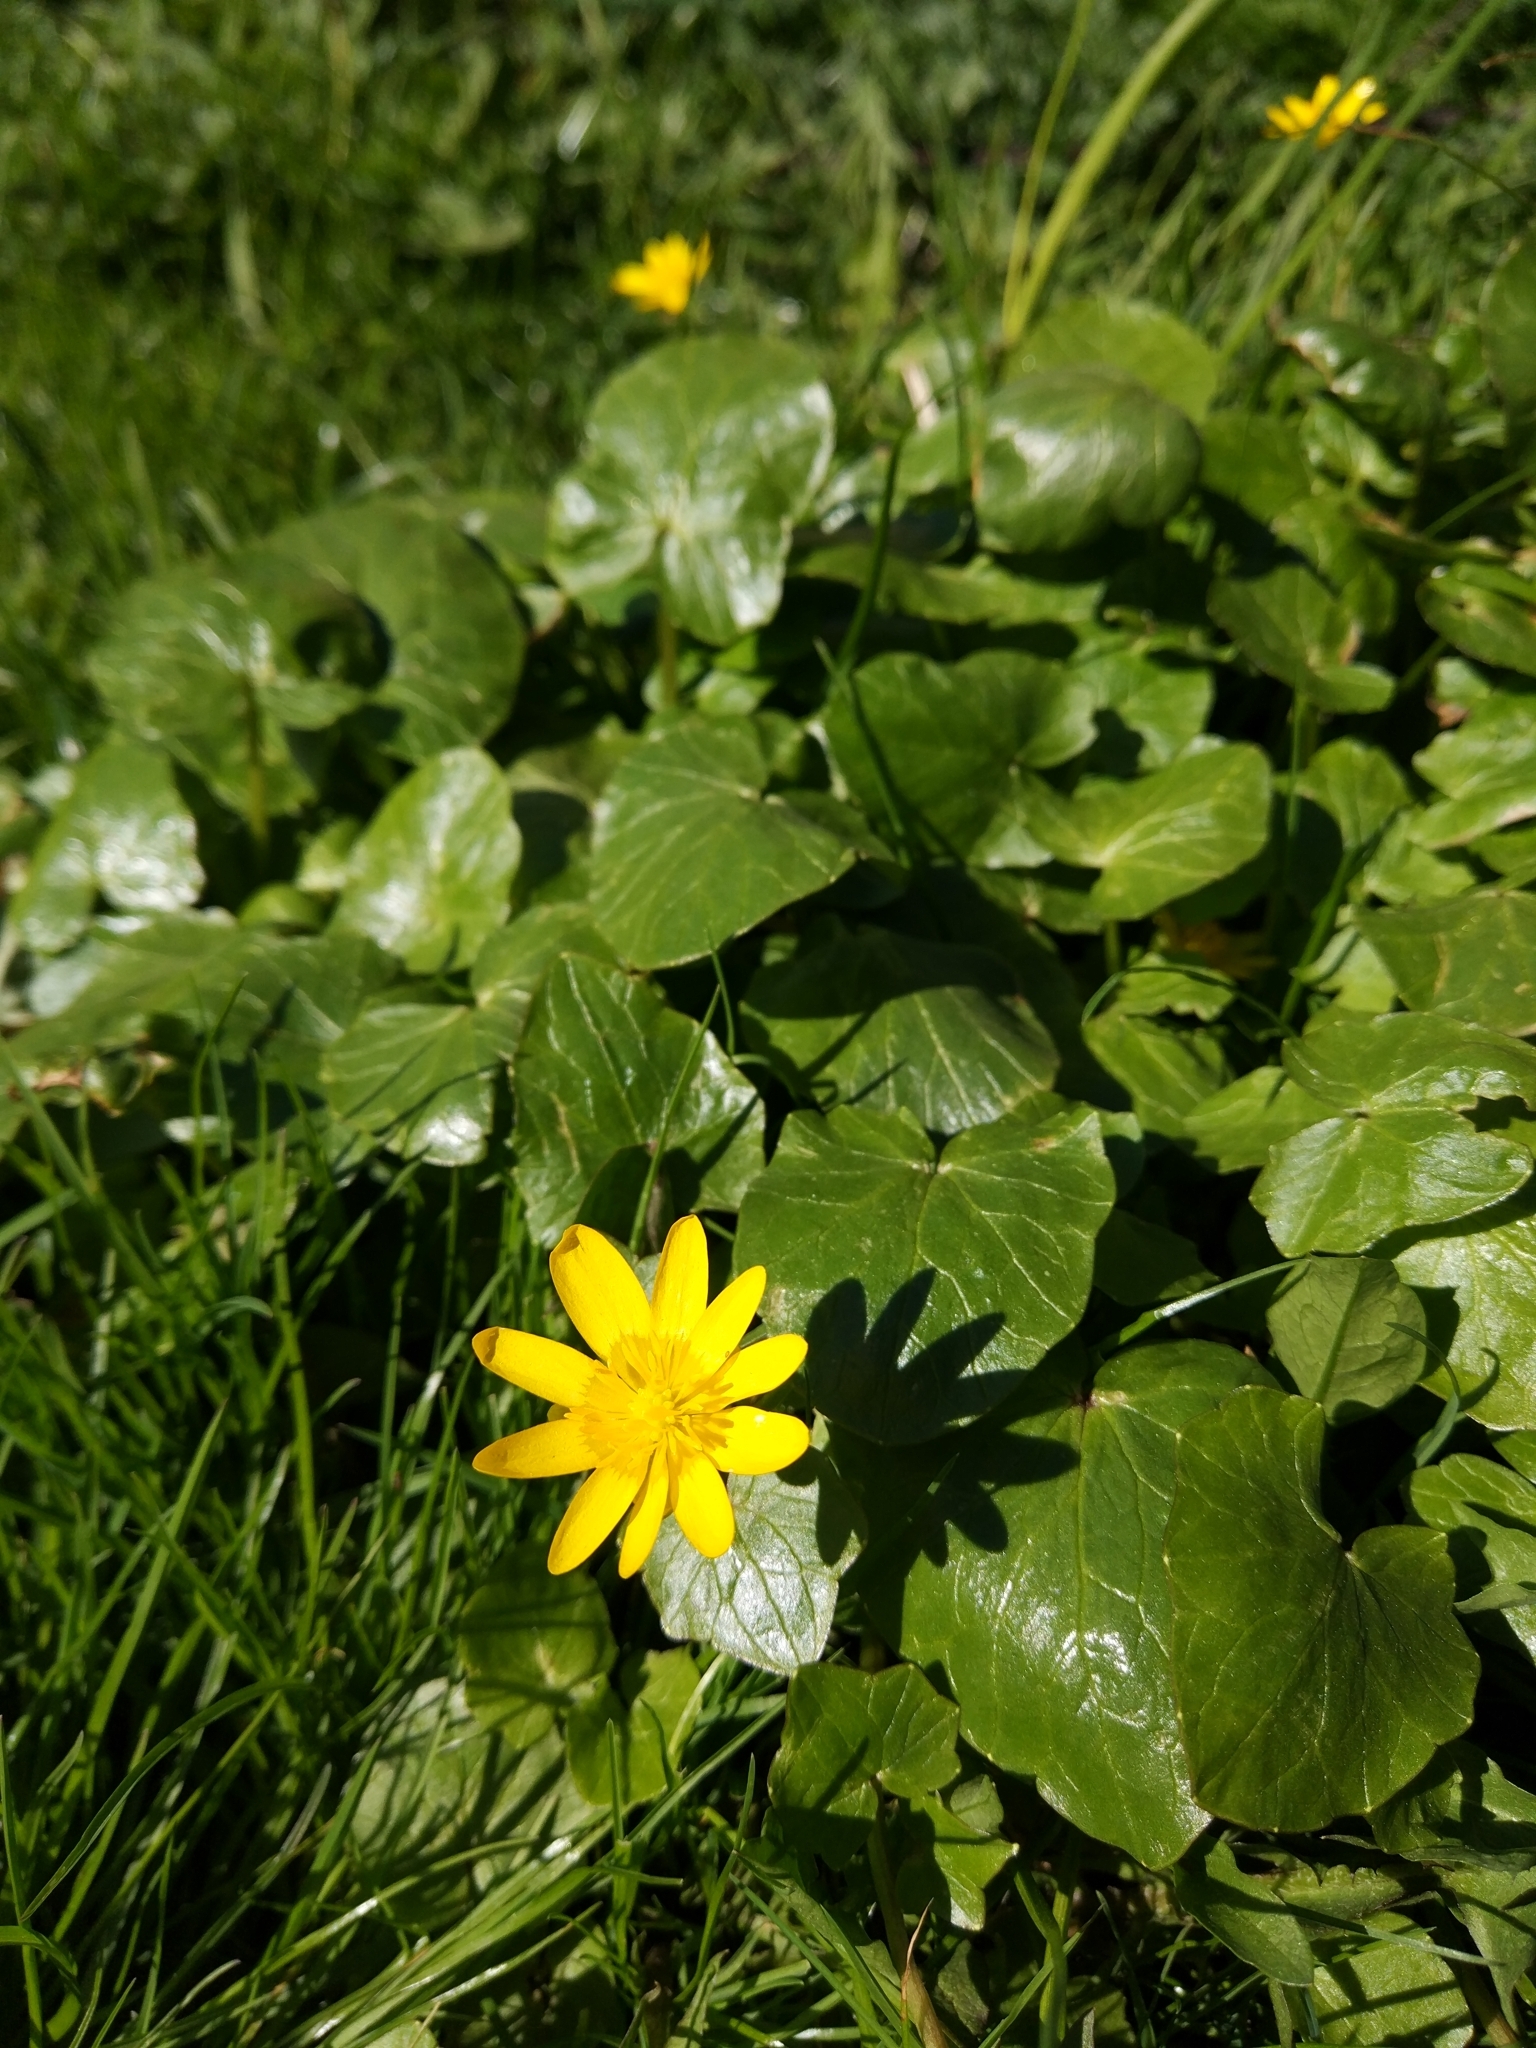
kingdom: Plantae
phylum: Tracheophyta
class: Magnoliopsida
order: Ranunculales
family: Ranunculaceae
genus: Ficaria
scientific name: Ficaria verna
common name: Lesser celandine
